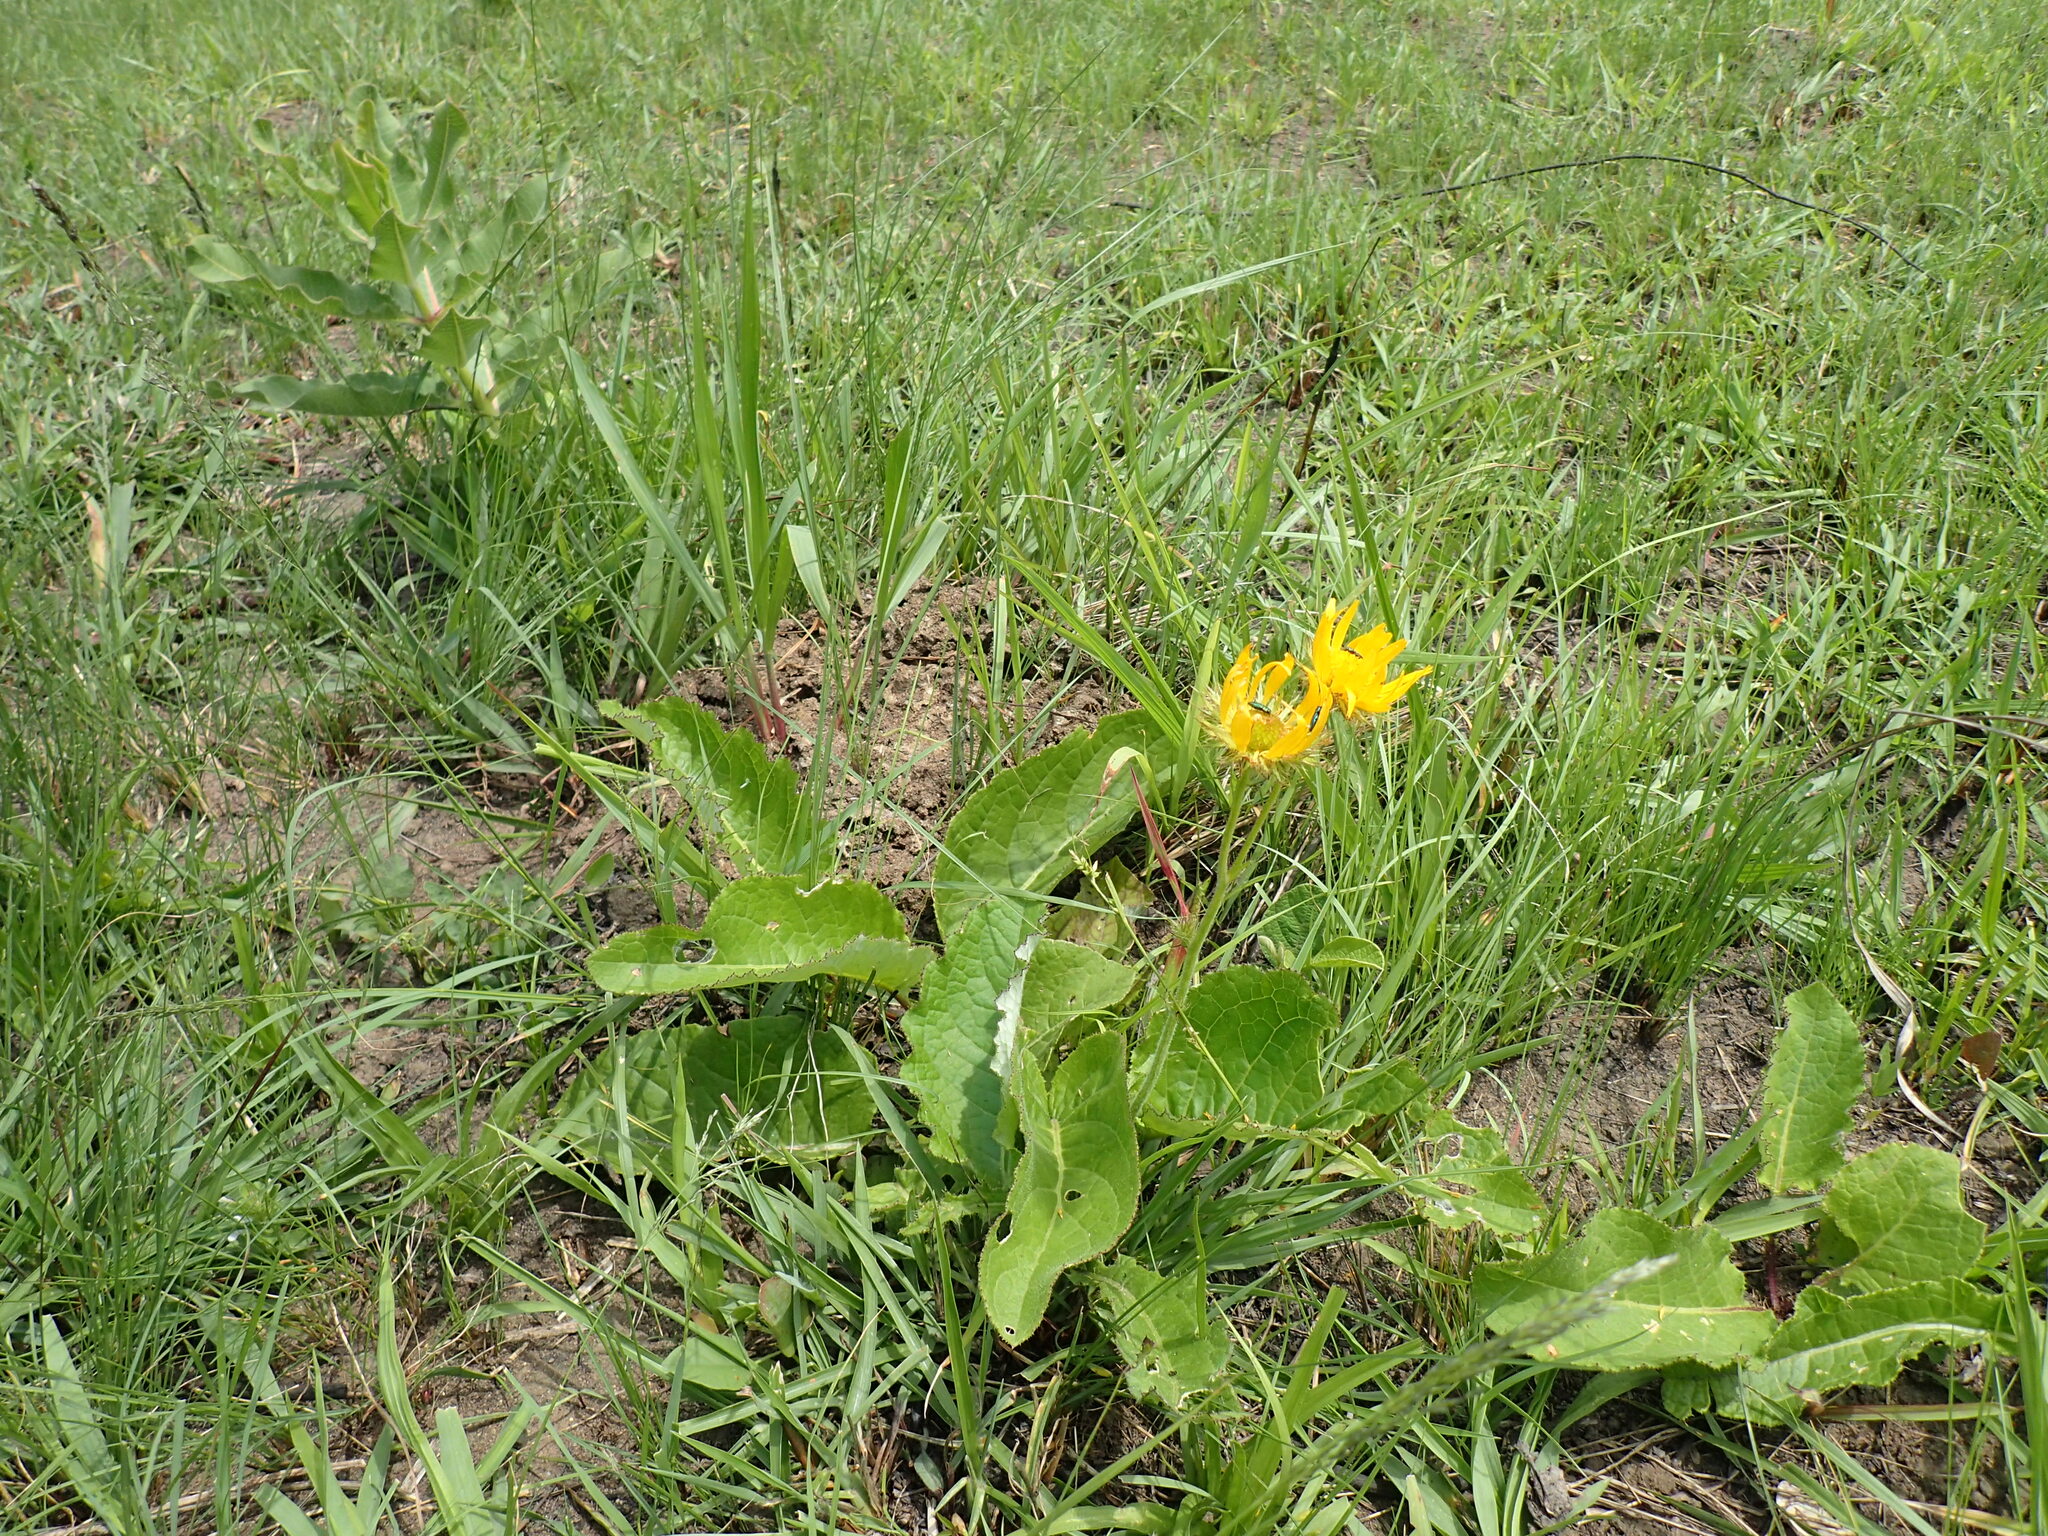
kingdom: Plantae
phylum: Tracheophyta
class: Magnoliopsida
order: Asterales
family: Asteraceae
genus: Berkheya
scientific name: Berkheya speciosa
